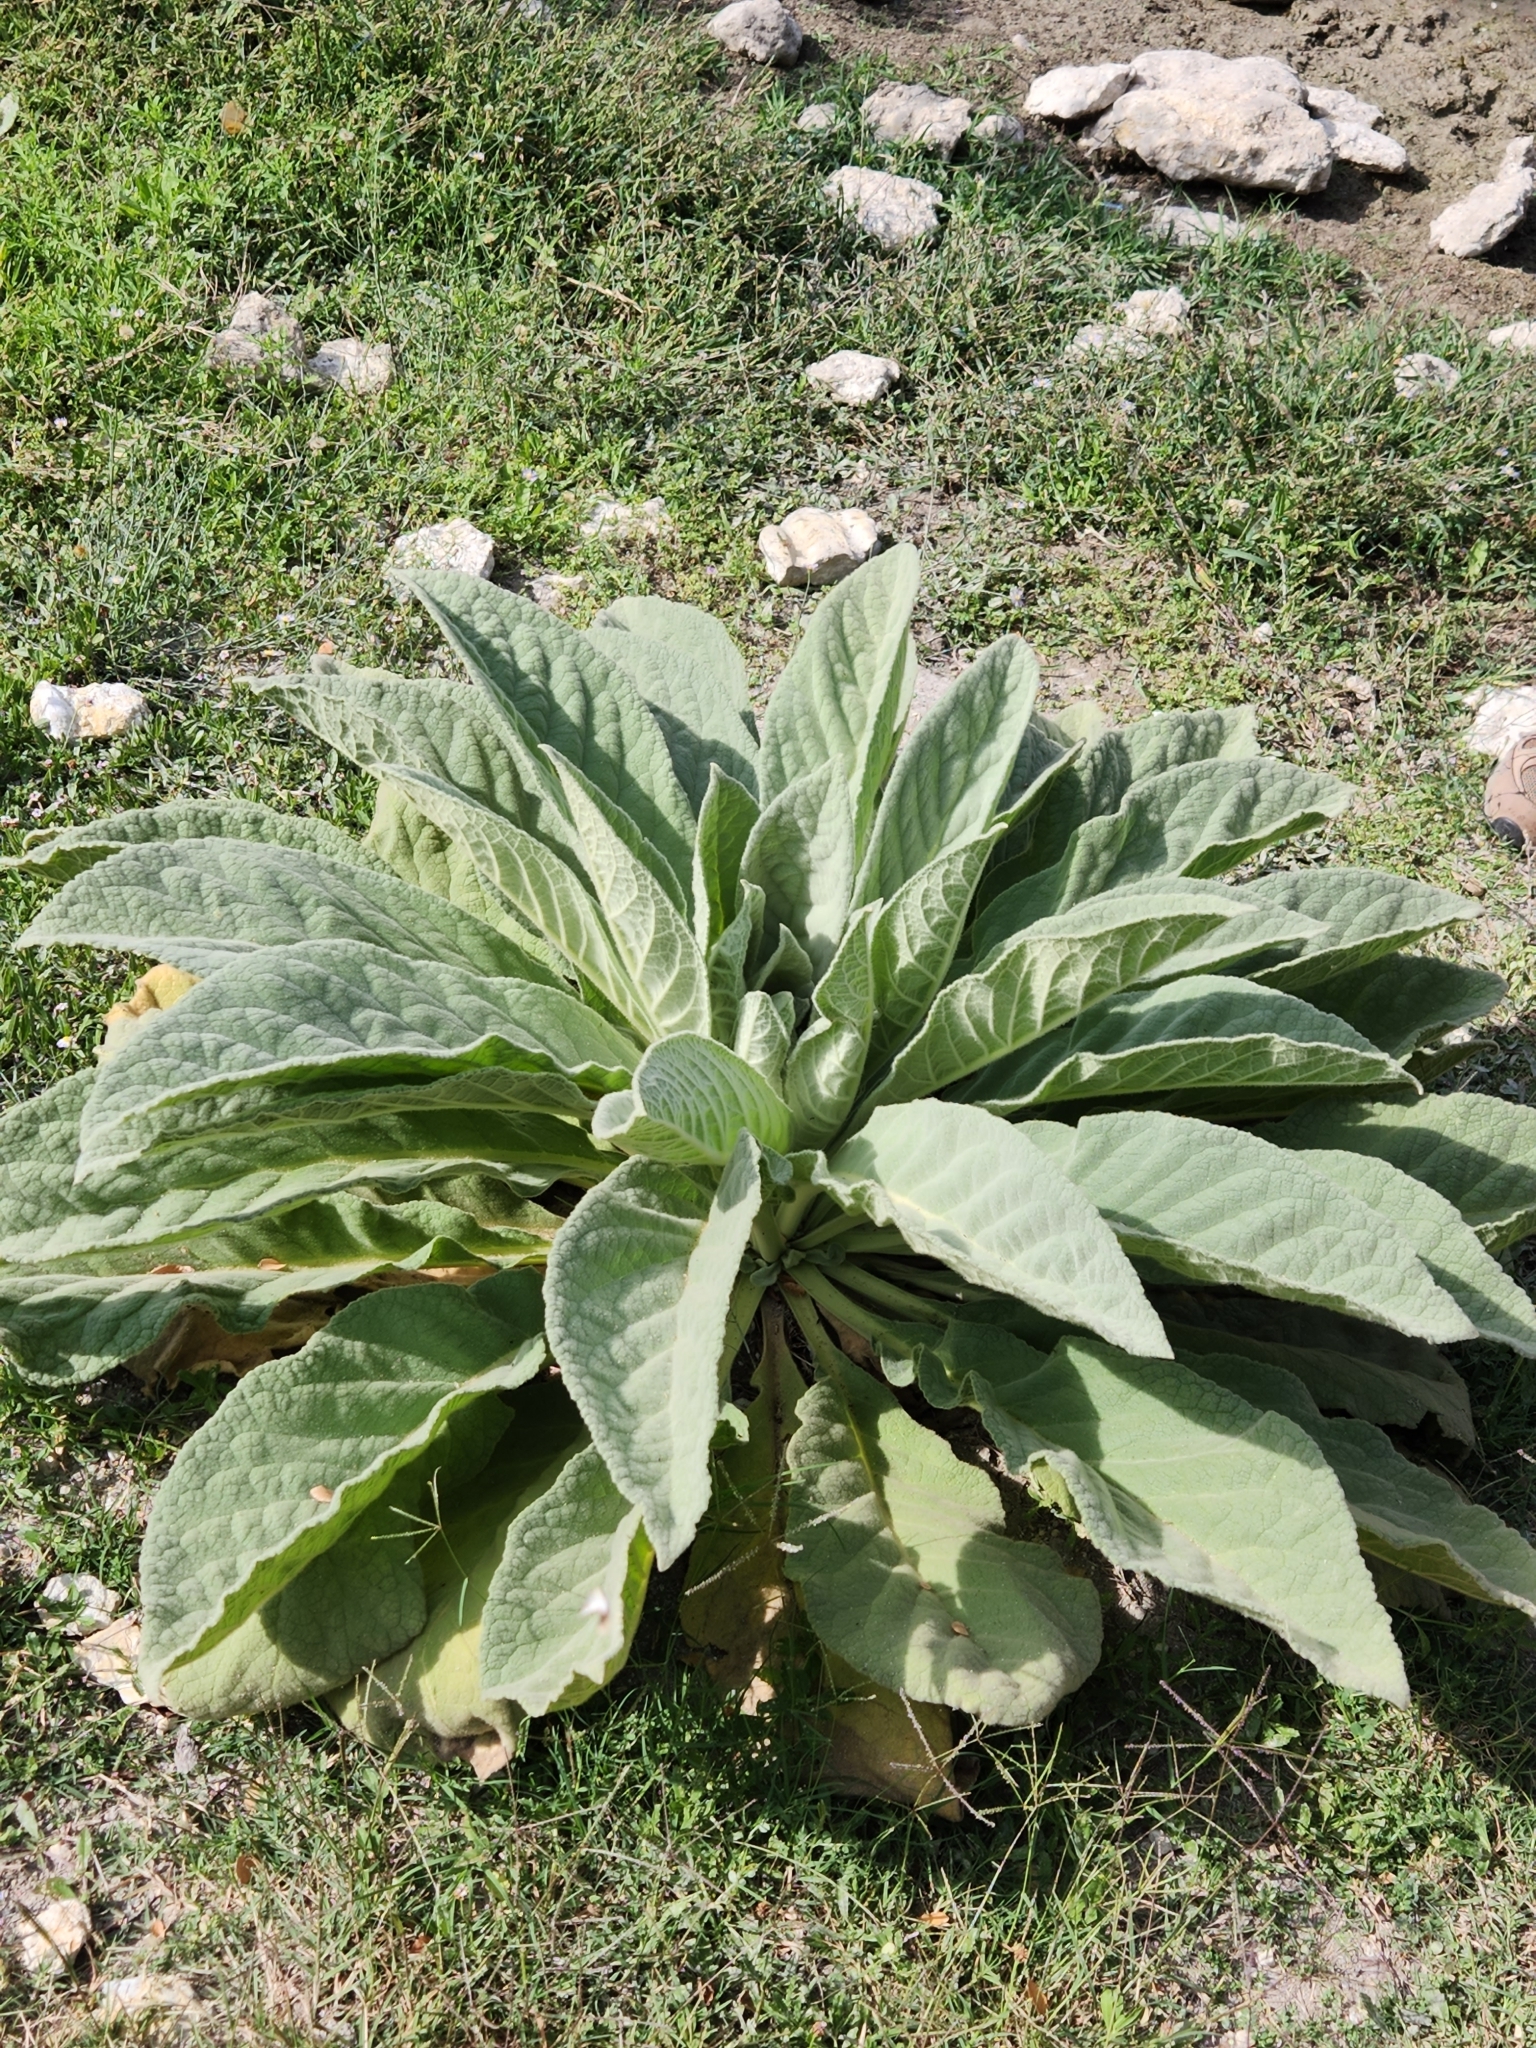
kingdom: Plantae
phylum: Tracheophyta
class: Magnoliopsida
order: Lamiales
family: Scrophulariaceae
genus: Verbascum
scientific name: Verbascum thapsus
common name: Common mullein
